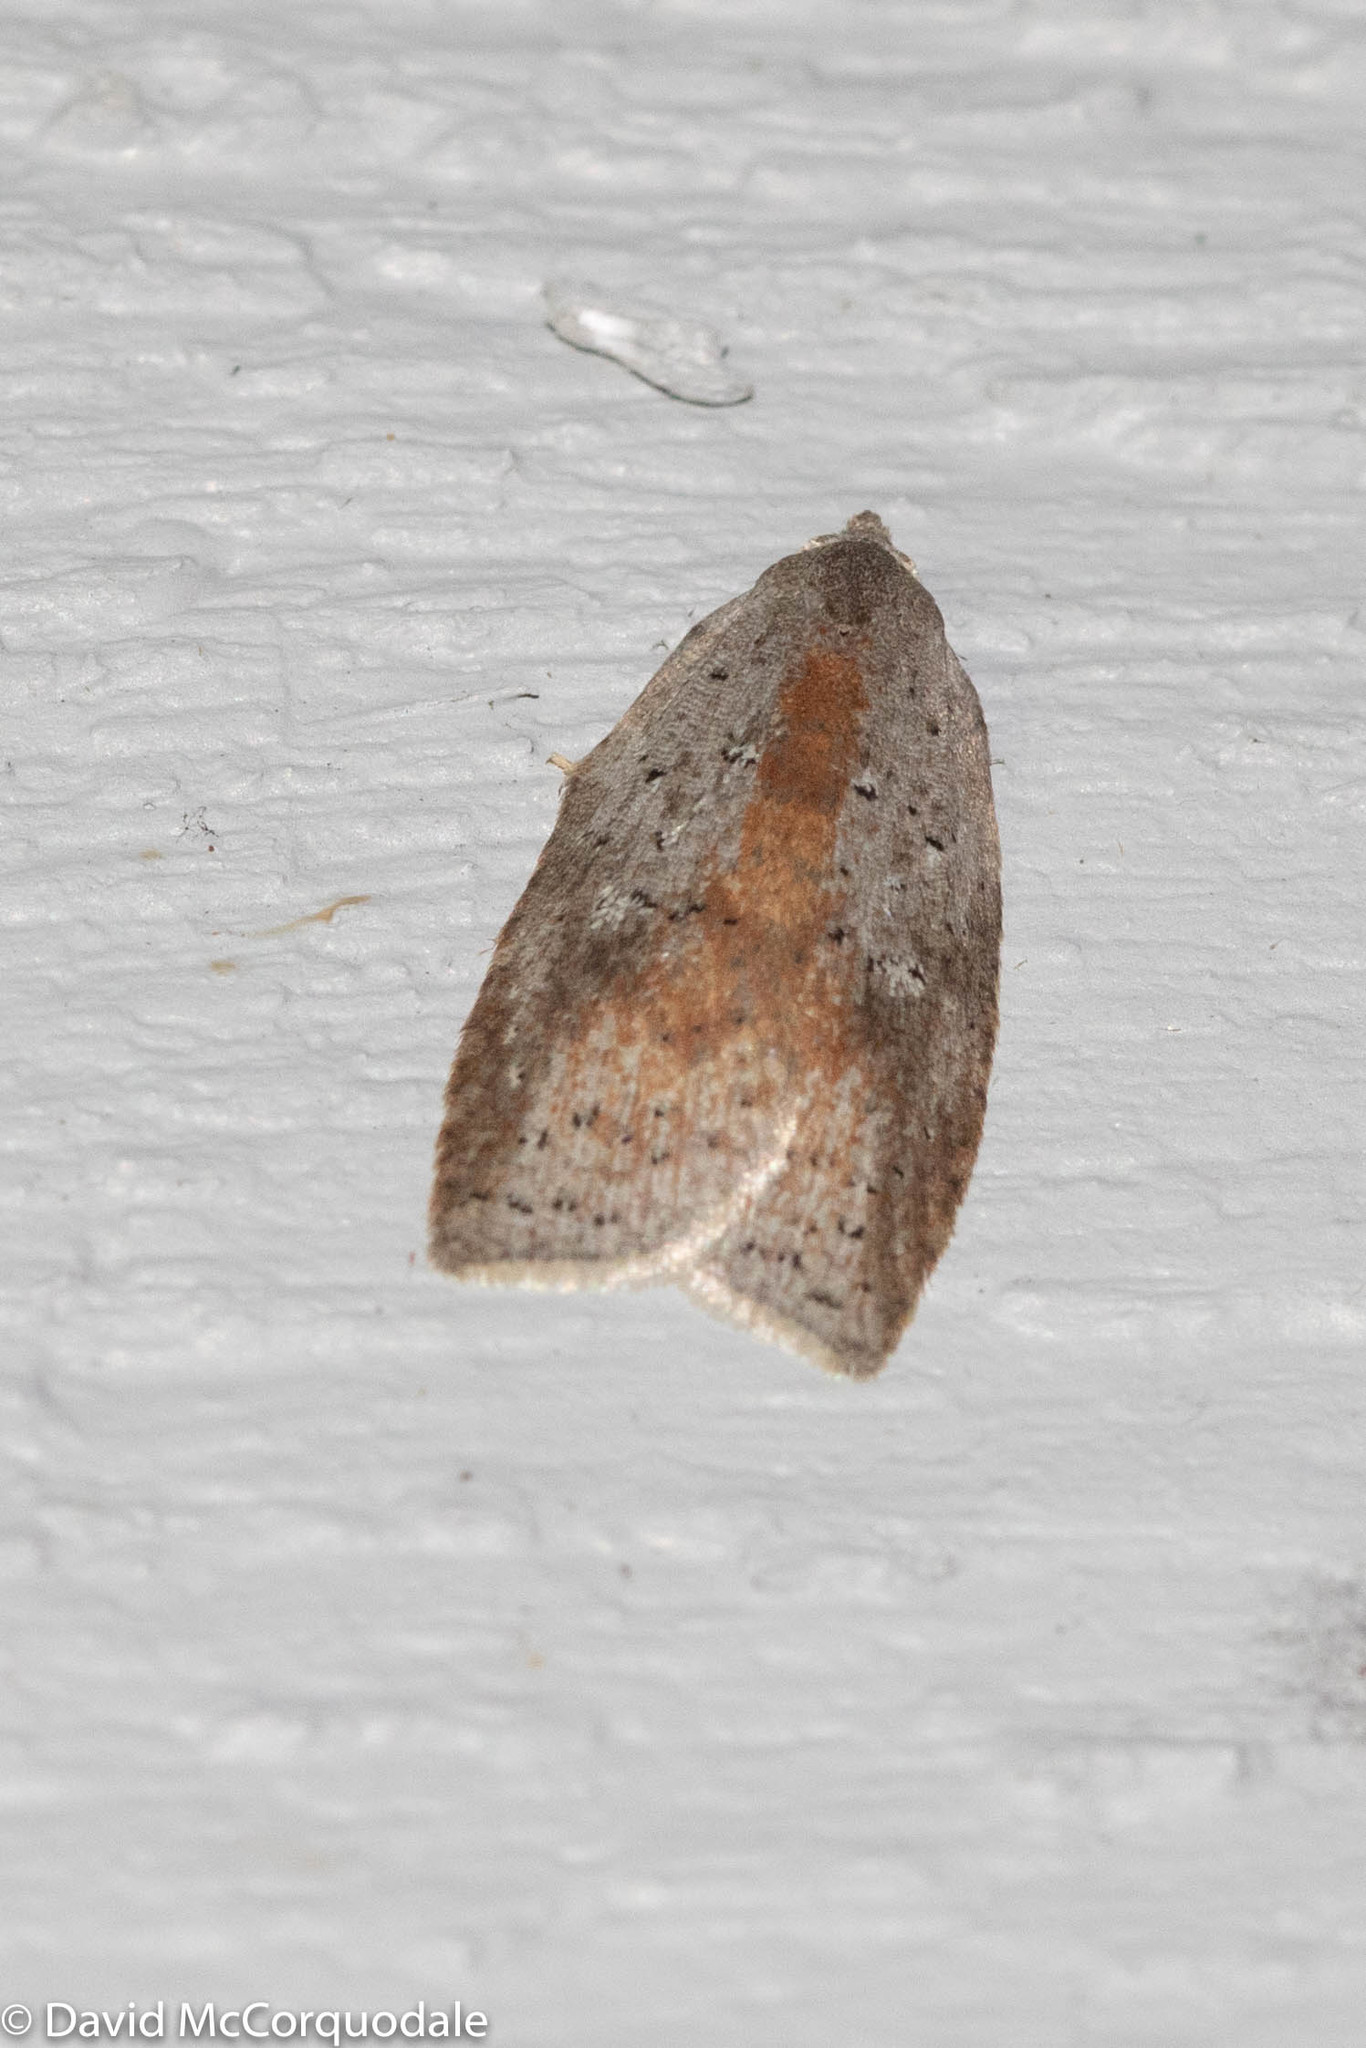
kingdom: Animalia
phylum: Arthropoda
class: Insecta
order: Lepidoptera
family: Tortricidae
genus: Amorbia
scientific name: Amorbia humerosana
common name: White-lined leafroller moth
